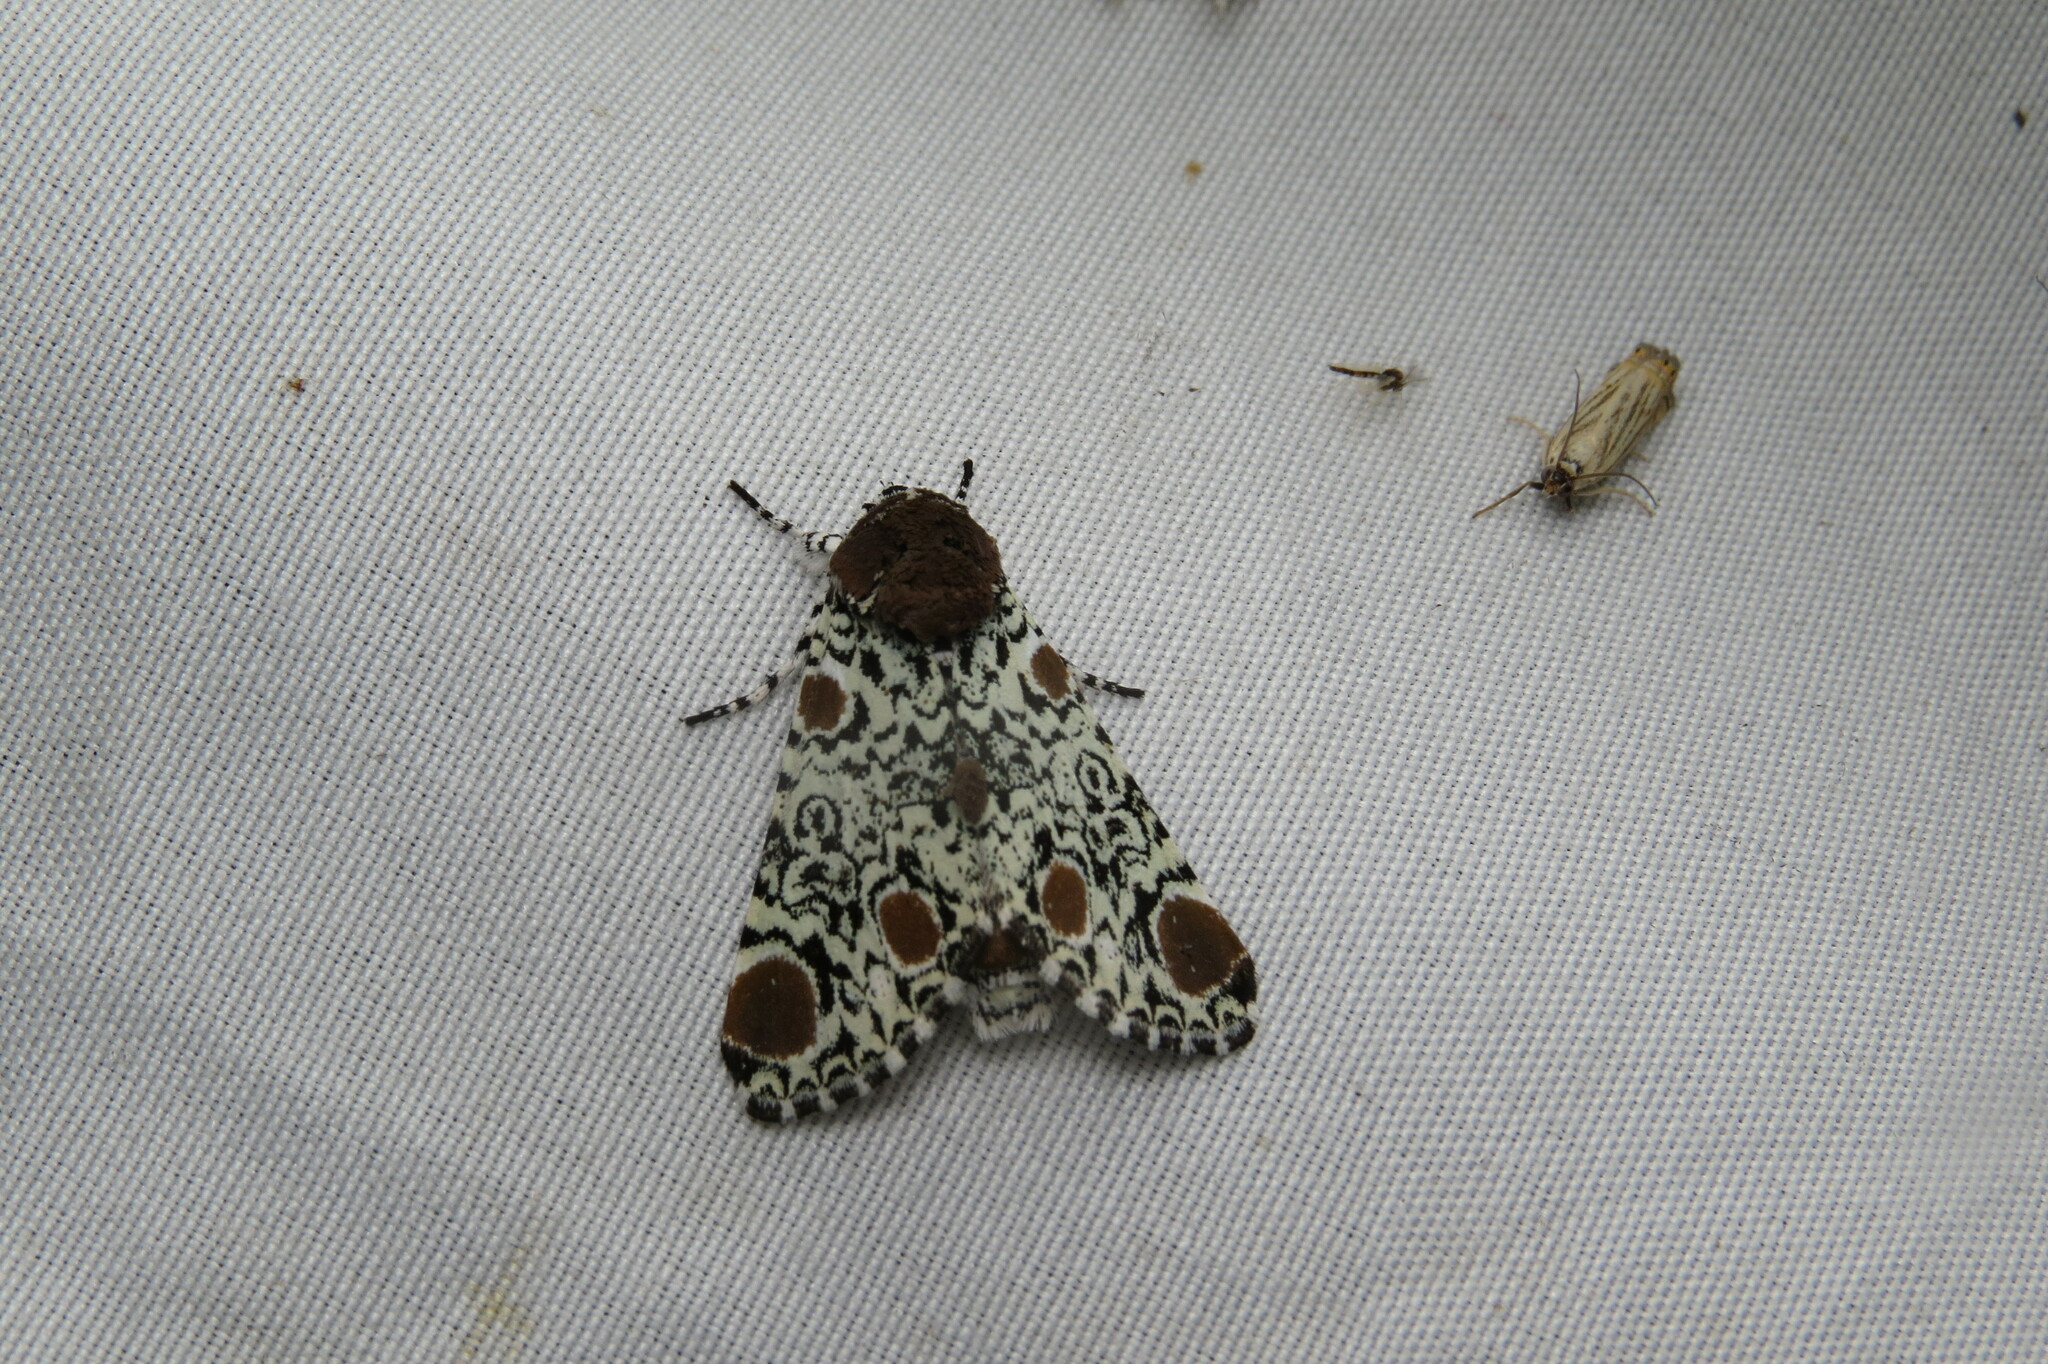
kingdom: Animalia
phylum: Arthropoda
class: Insecta
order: Lepidoptera
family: Noctuidae
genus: Harrisimemna
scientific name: Harrisimemna trisignata
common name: Harris threespot
